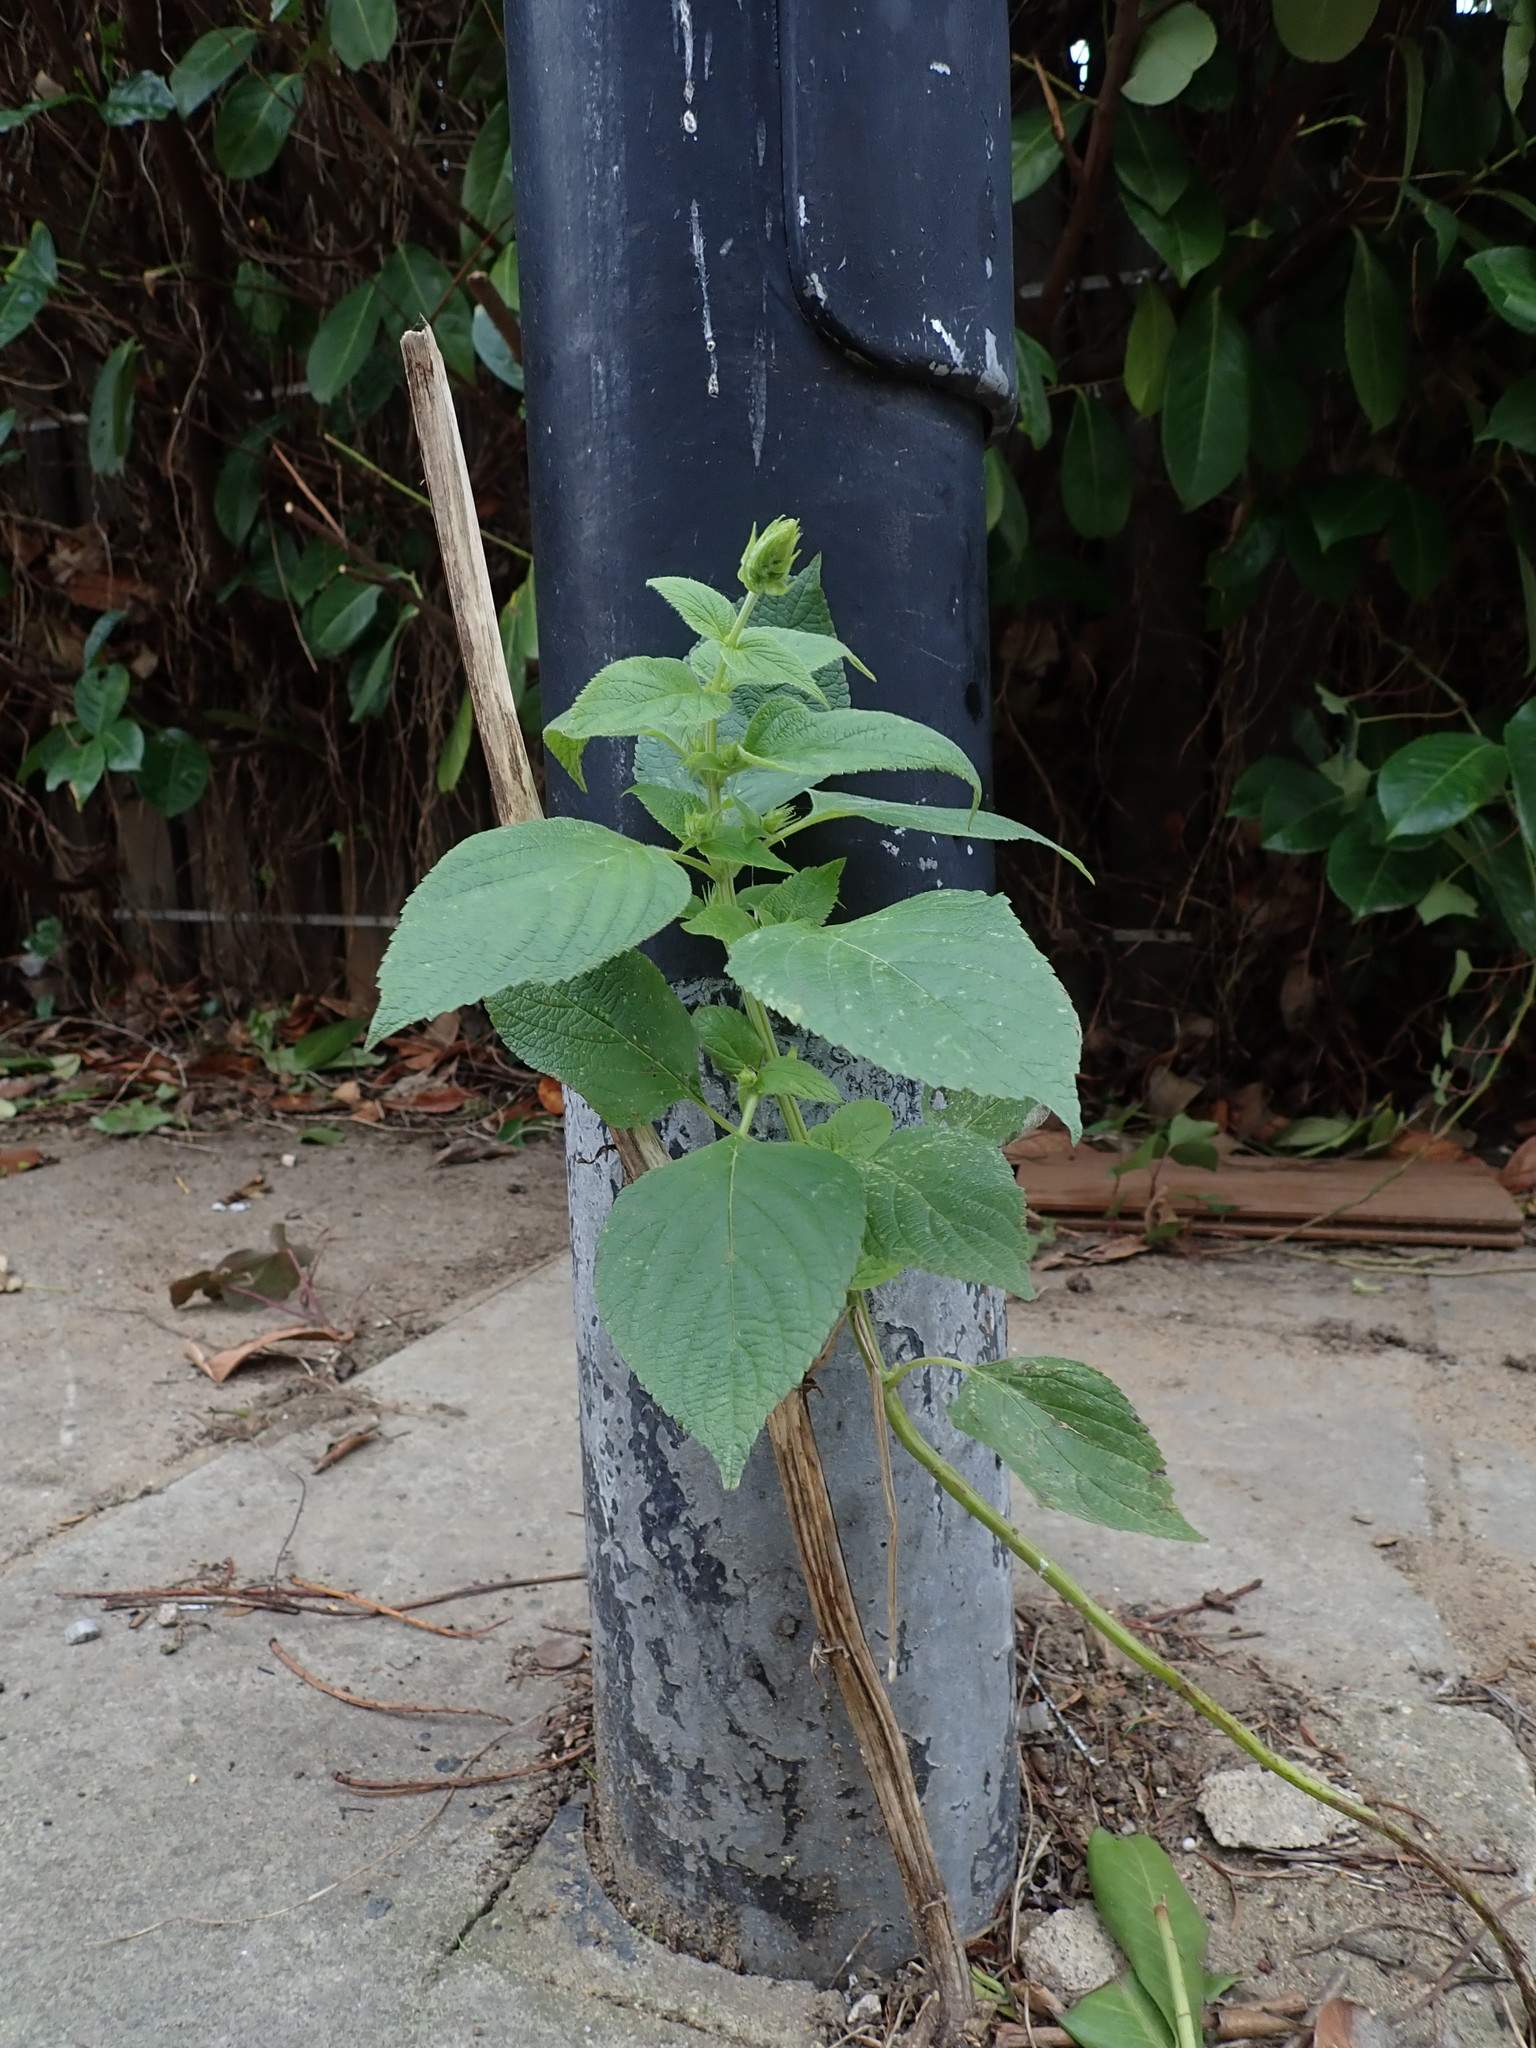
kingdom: Plantae
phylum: Tracheophyta
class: Magnoliopsida
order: Lamiales
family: Lamiaceae
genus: Salvia
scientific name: Salvia hispanica
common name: Chia
